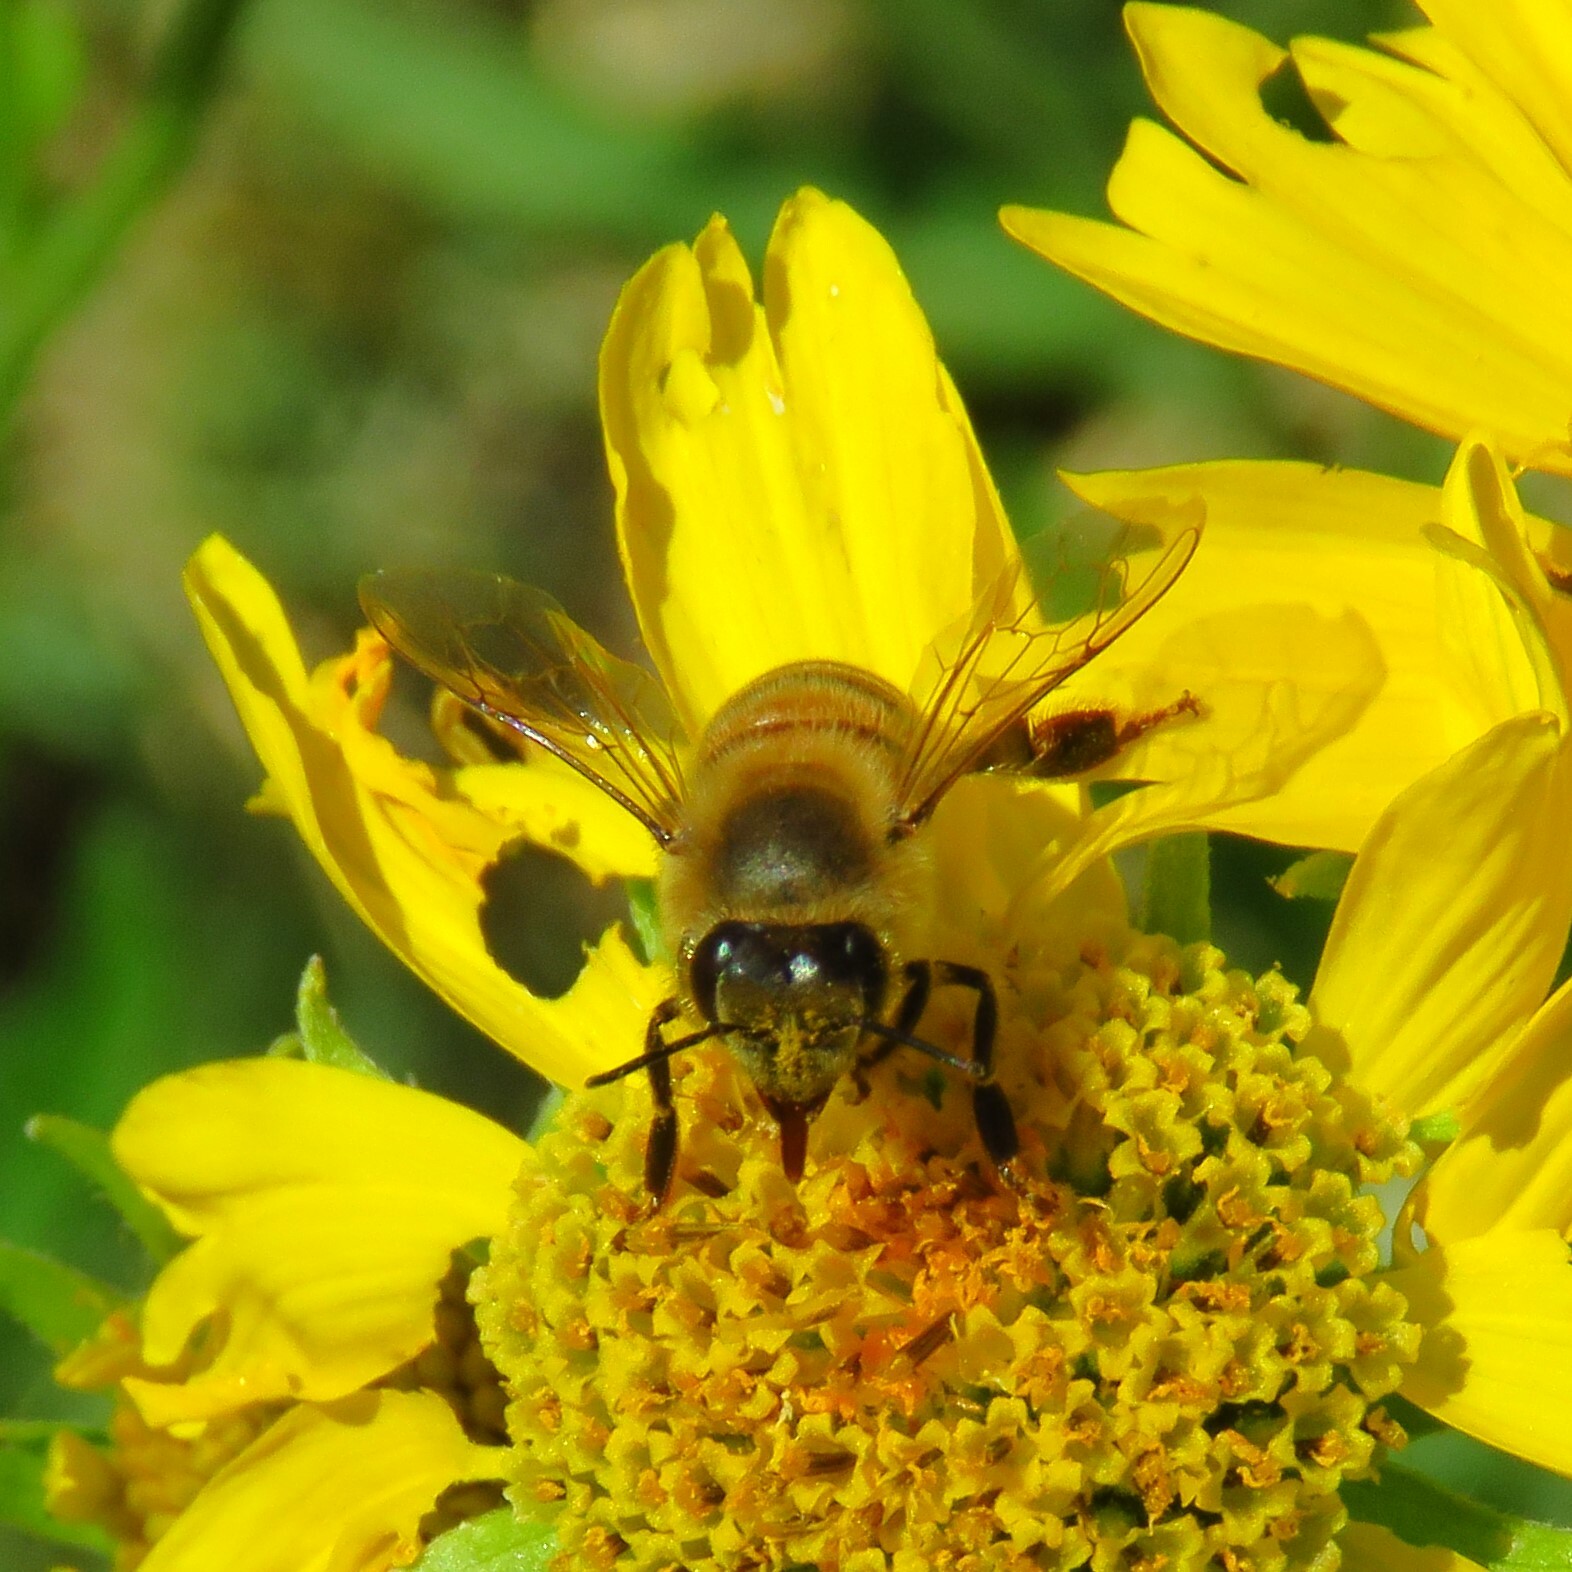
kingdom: Animalia
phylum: Arthropoda
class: Insecta
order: Hymenoptera
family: Apidae
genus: Apis
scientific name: Apis mellifera
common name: Honey bee
